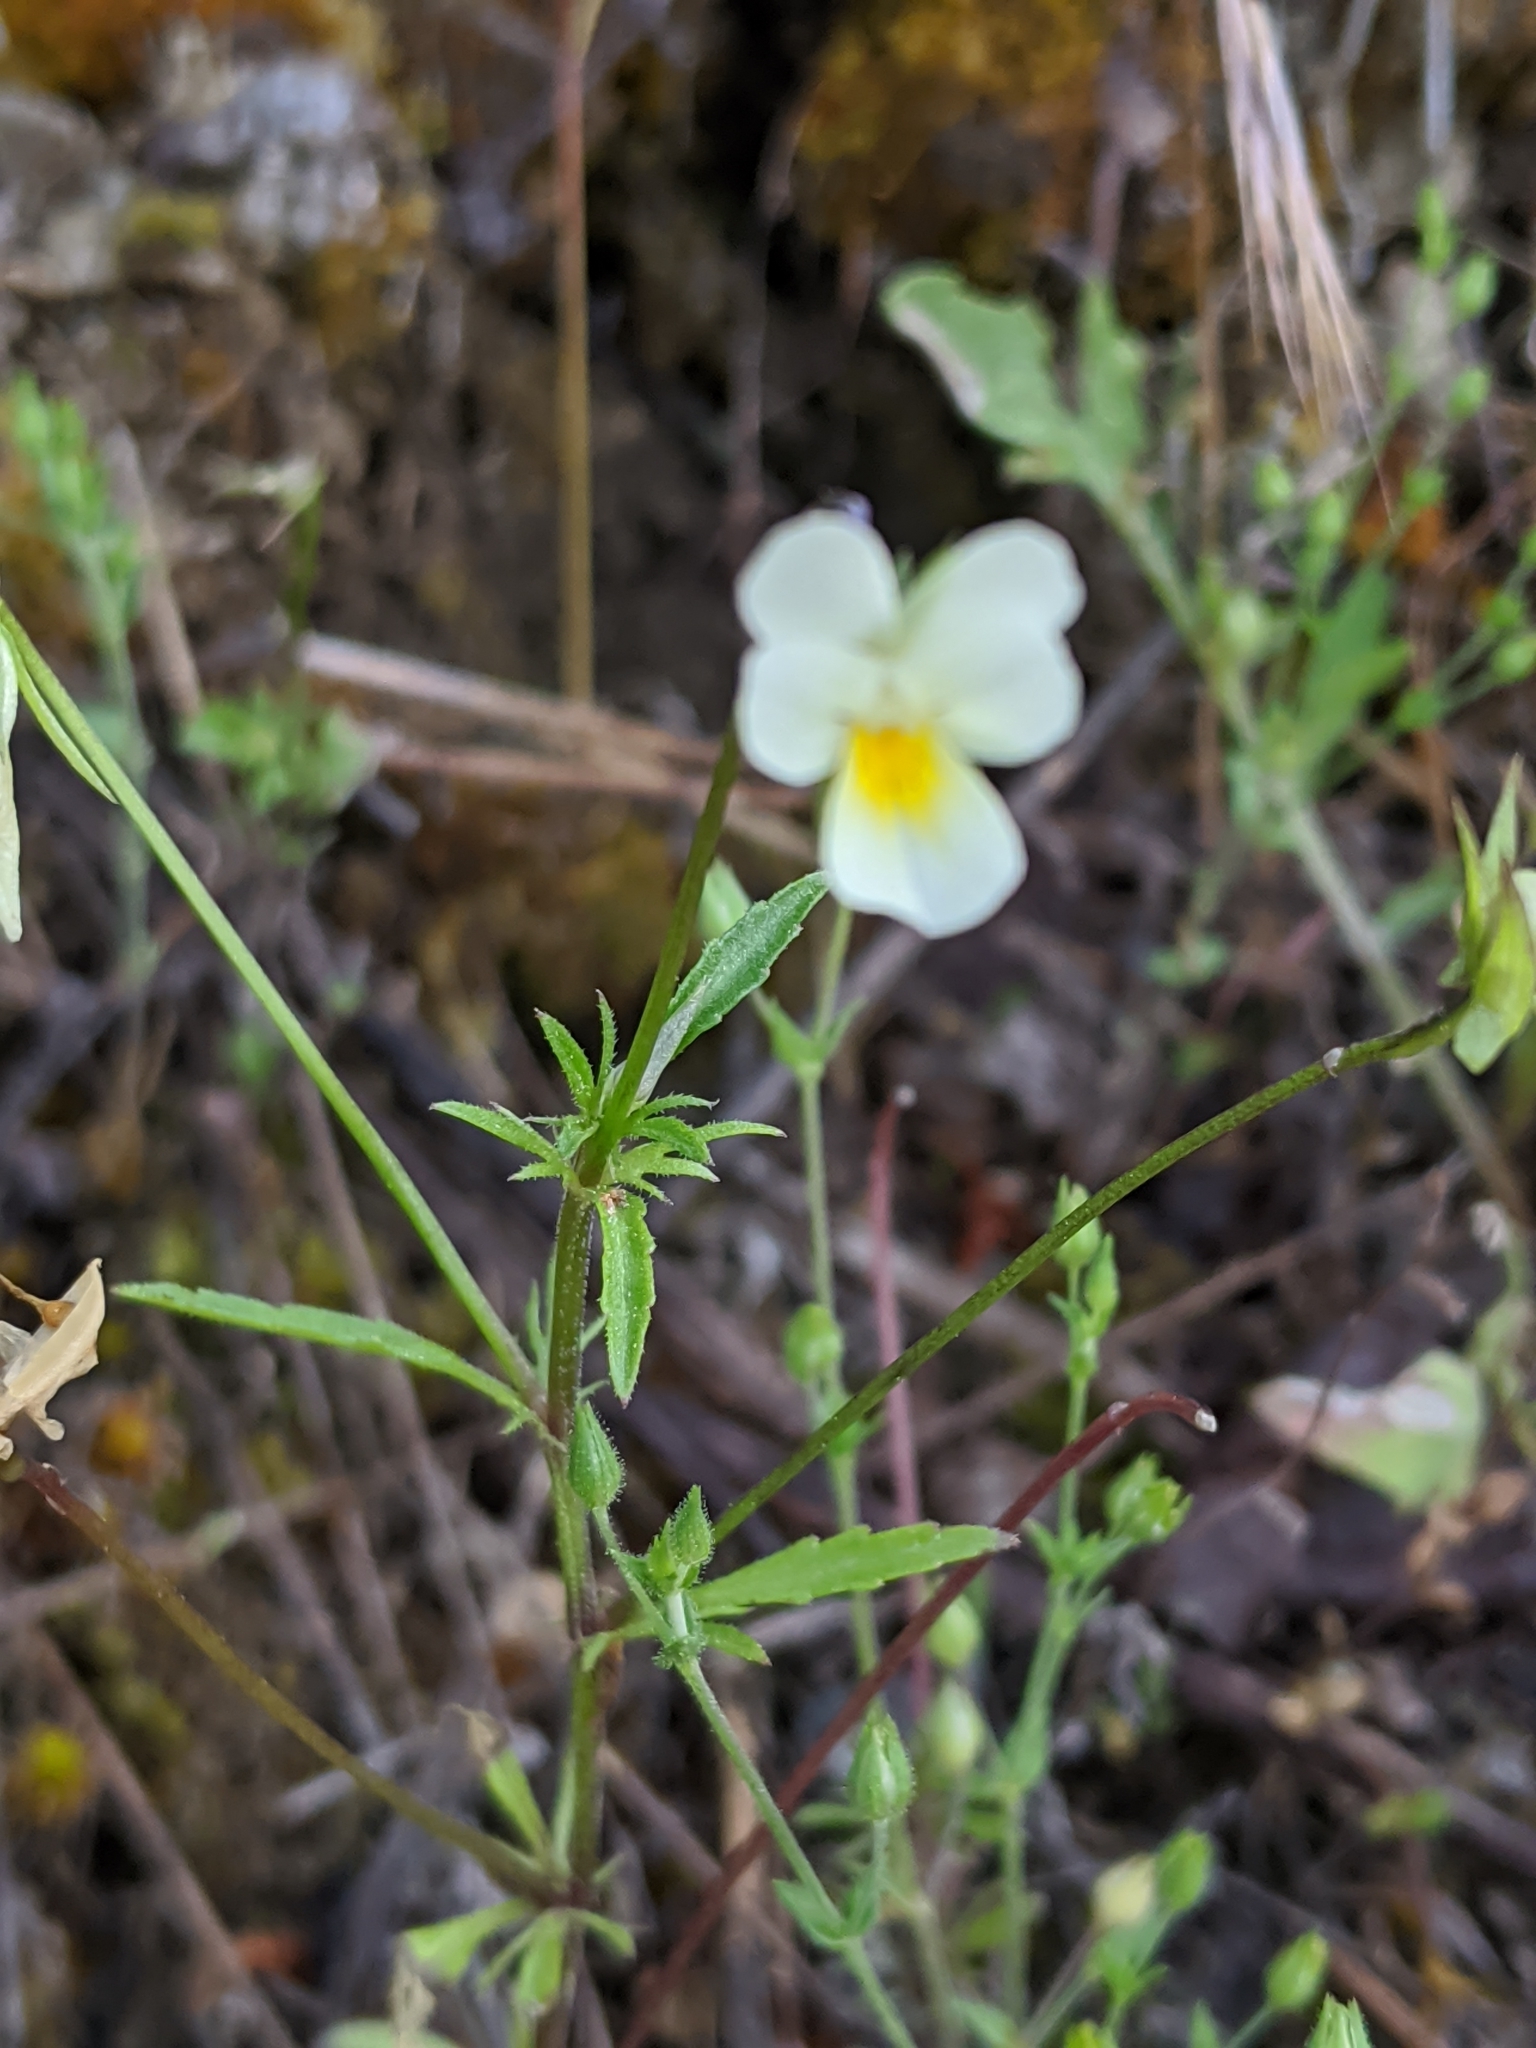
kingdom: Plantae
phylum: Tracheophyta
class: Magnoliopsida
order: Malpighiales
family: Violaceae
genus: Viola
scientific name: Viola arvensis
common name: Field pansy
